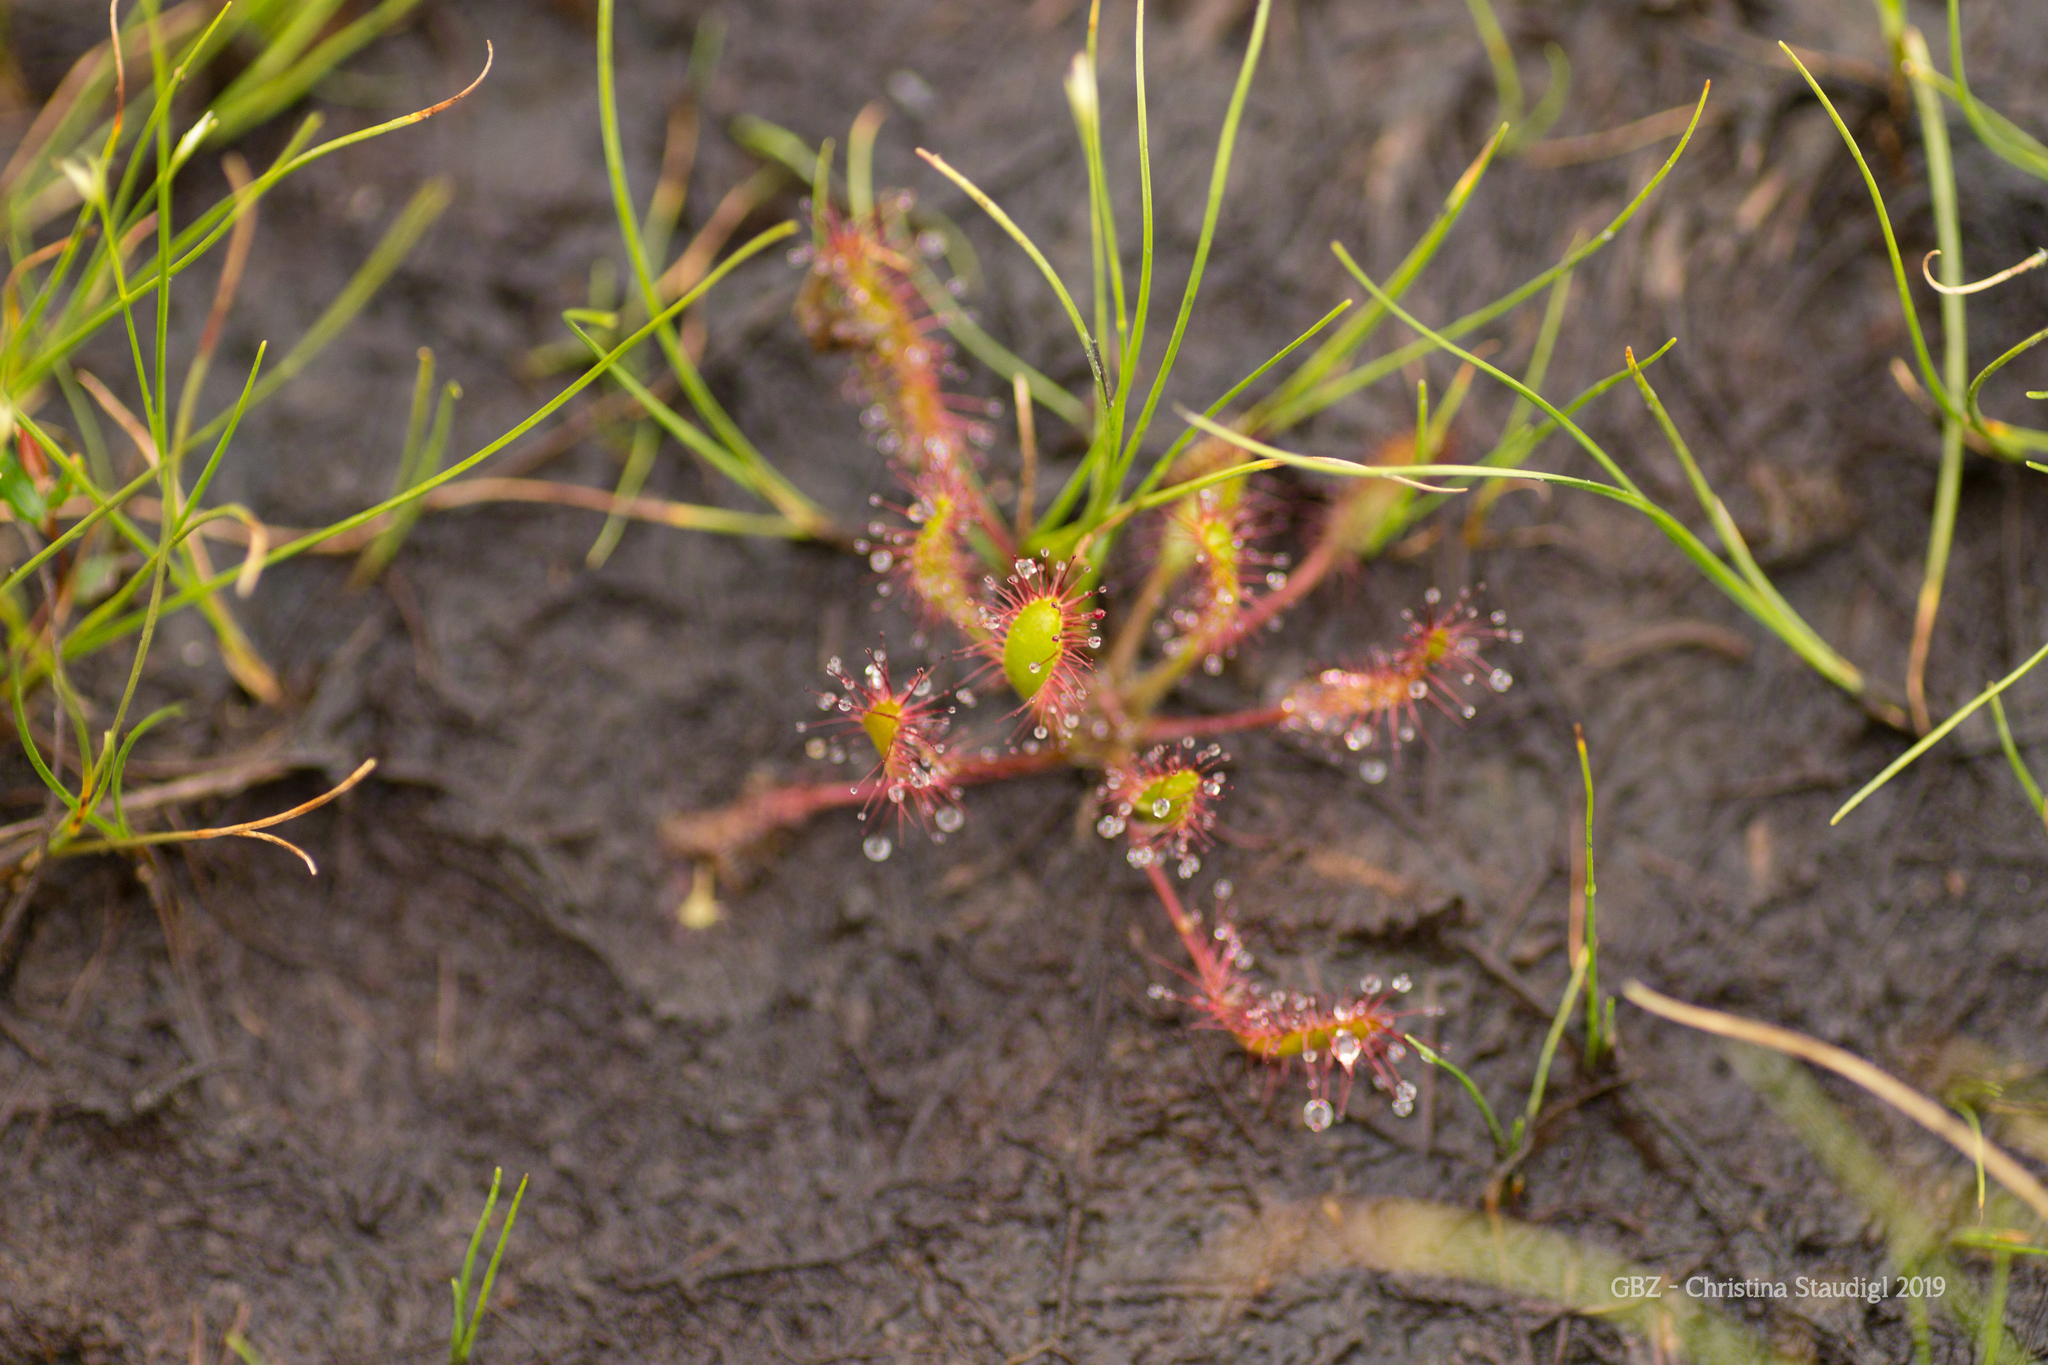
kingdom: Plantae
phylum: Tracheophyta
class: Magnoliopsida
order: Caryophyllales
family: Droseraceae
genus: Drosera
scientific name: Drosera anglica
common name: Great sundew
